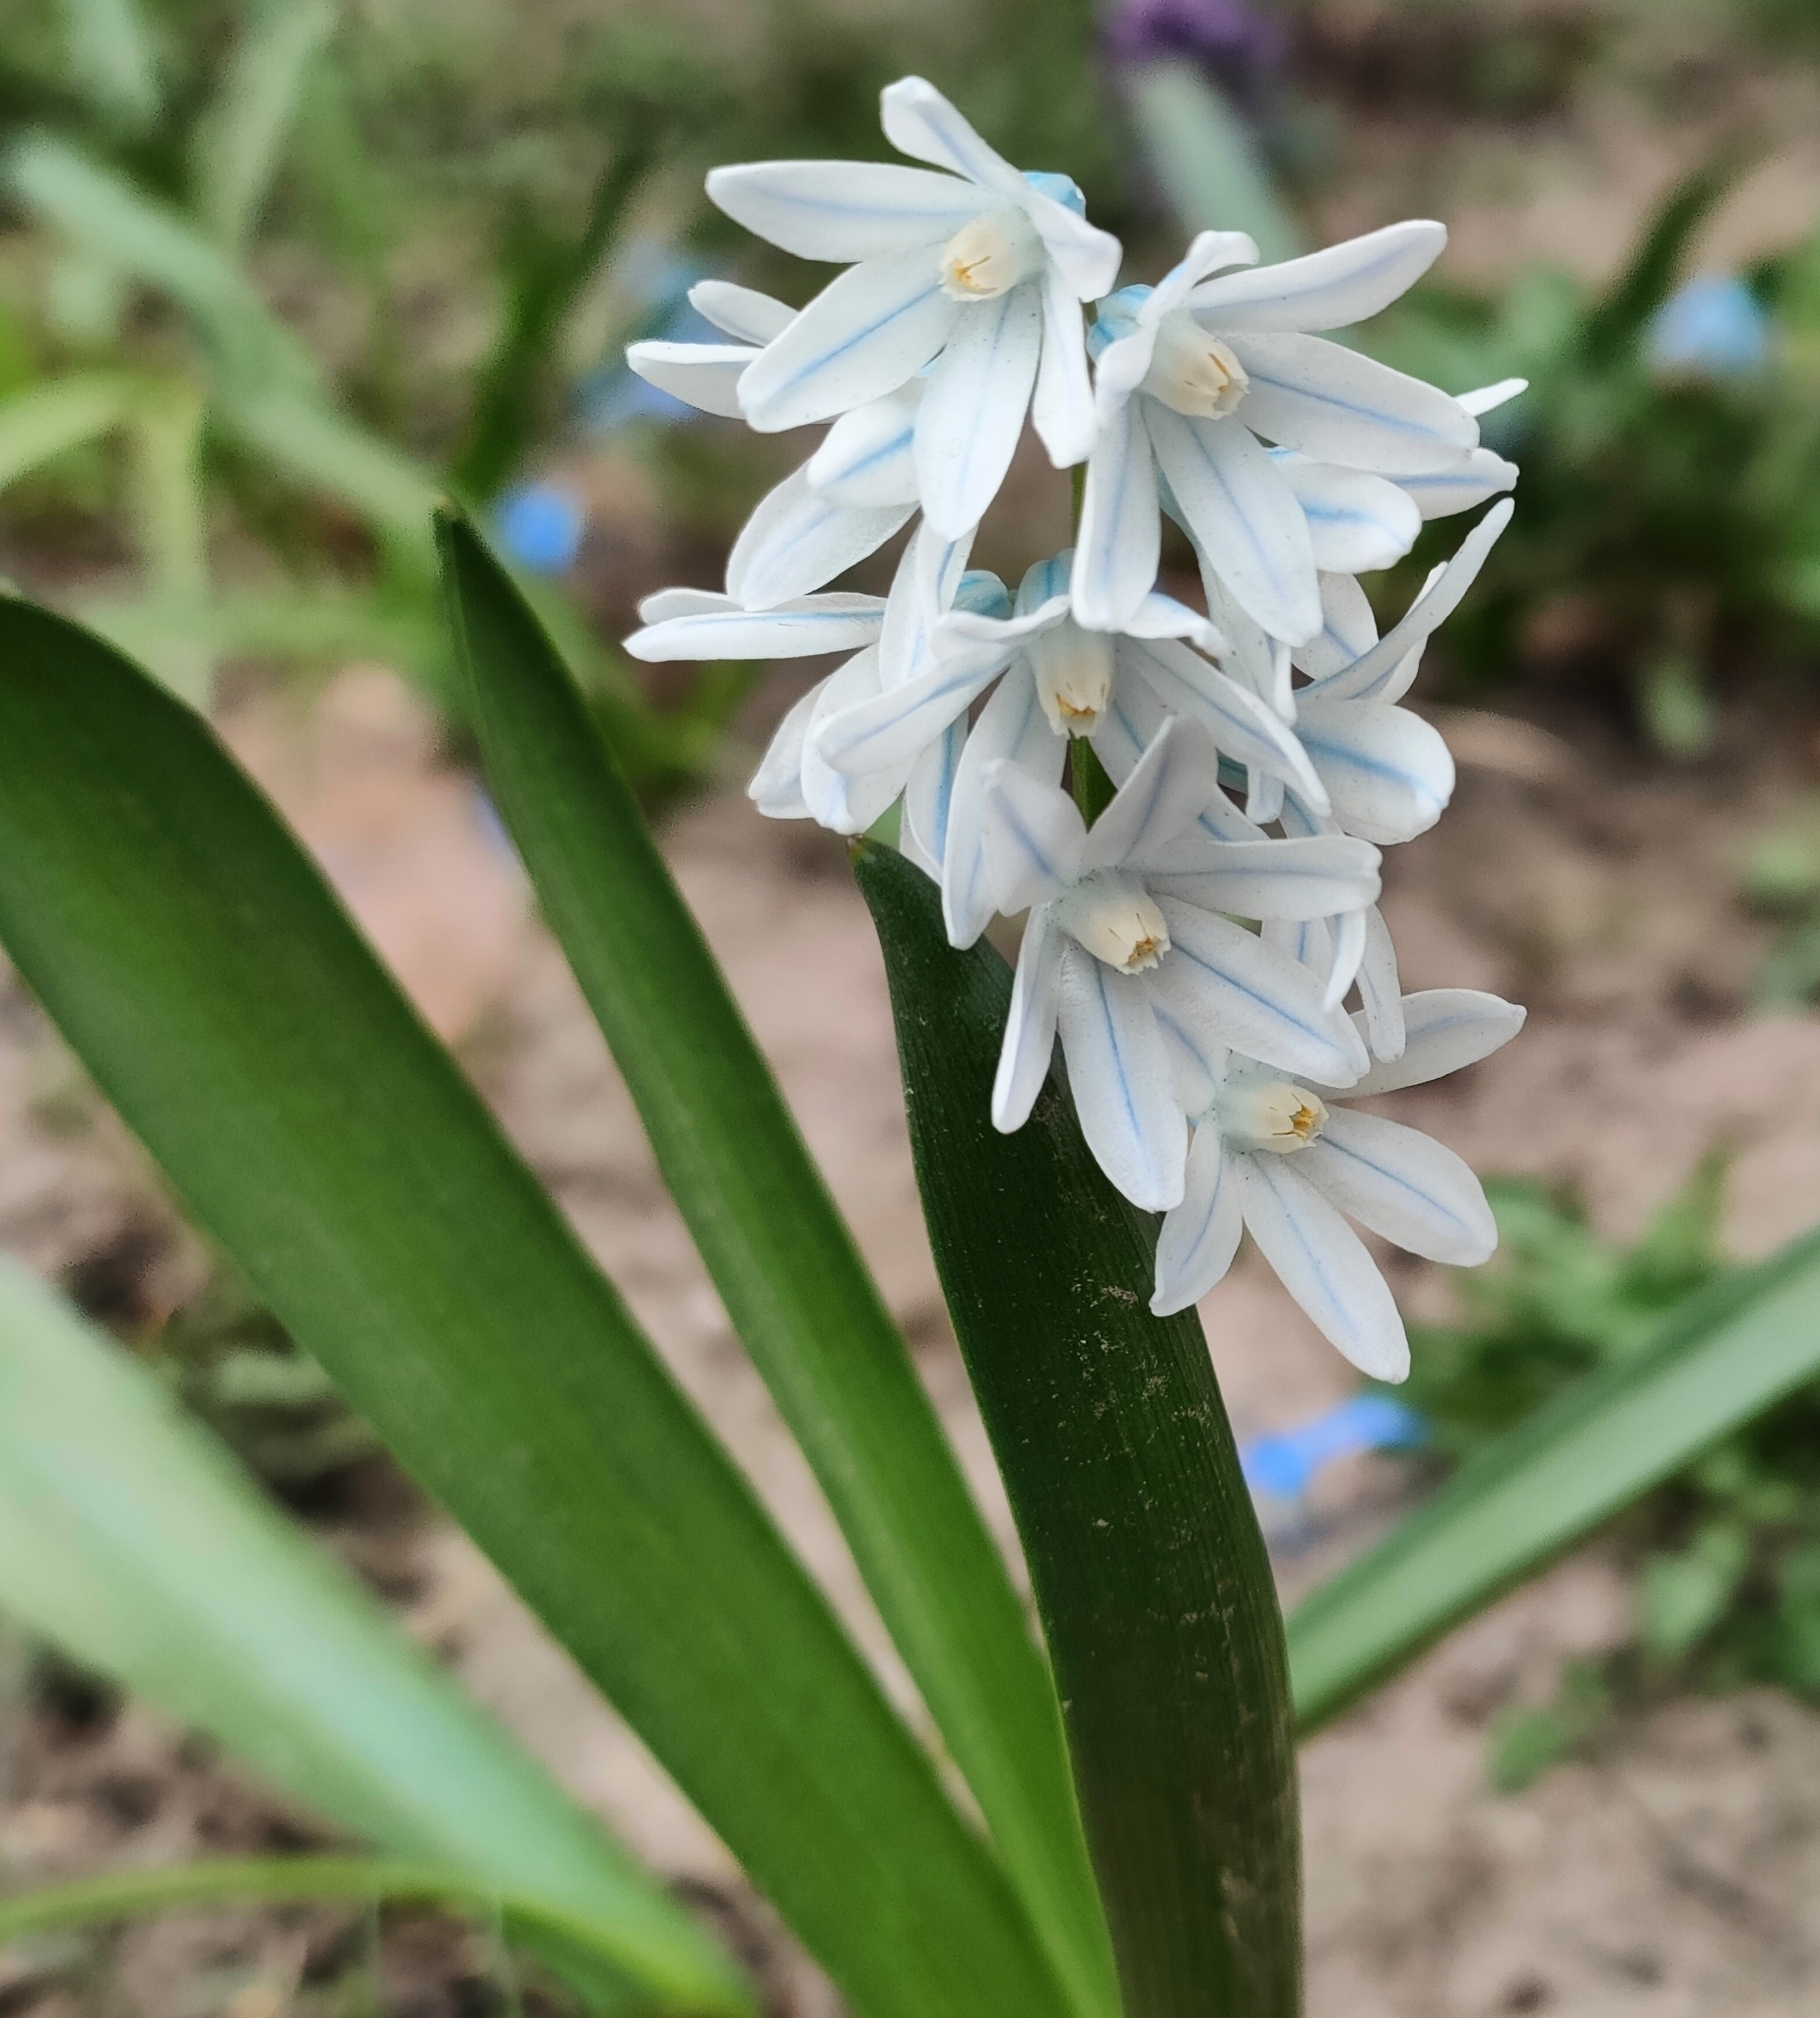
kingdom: Plantae
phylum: Tracheophyta
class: Liliopsida
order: Asparagales
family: Asparagaceae
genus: Puschkinia
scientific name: Puschkinia scilloides
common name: Striped squill
